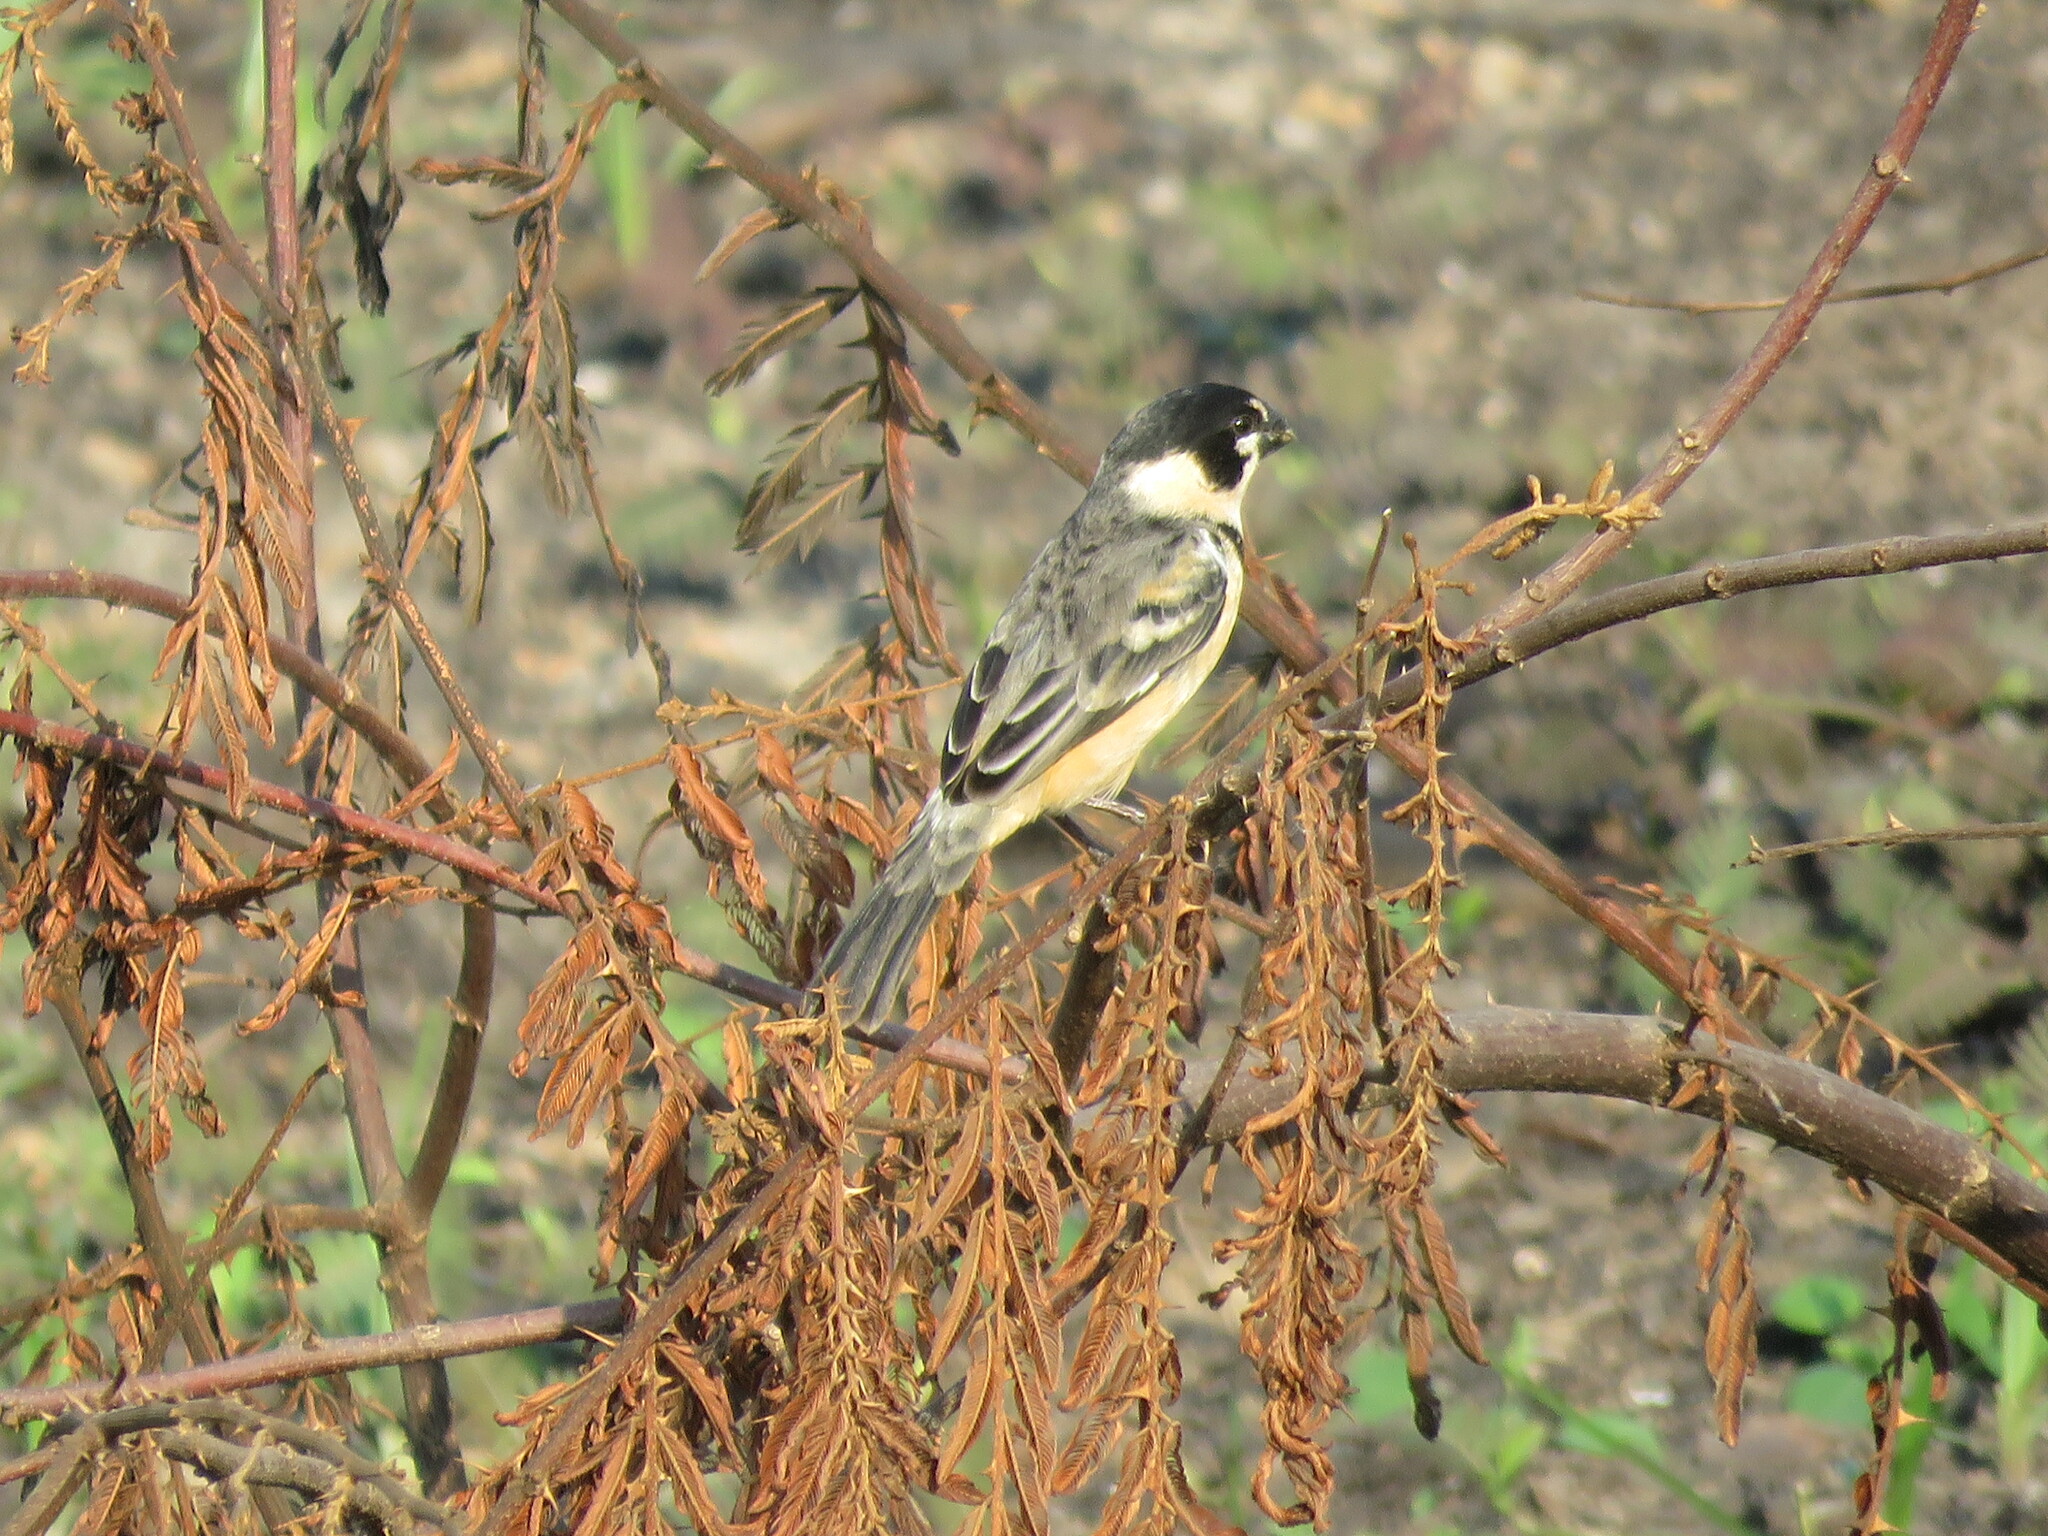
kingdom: Animalia
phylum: Chordata
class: Aves
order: Passeriformes
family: Thraupidae
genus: Sporophila
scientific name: Sporophila collaris
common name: Rusty-collared seedeater
